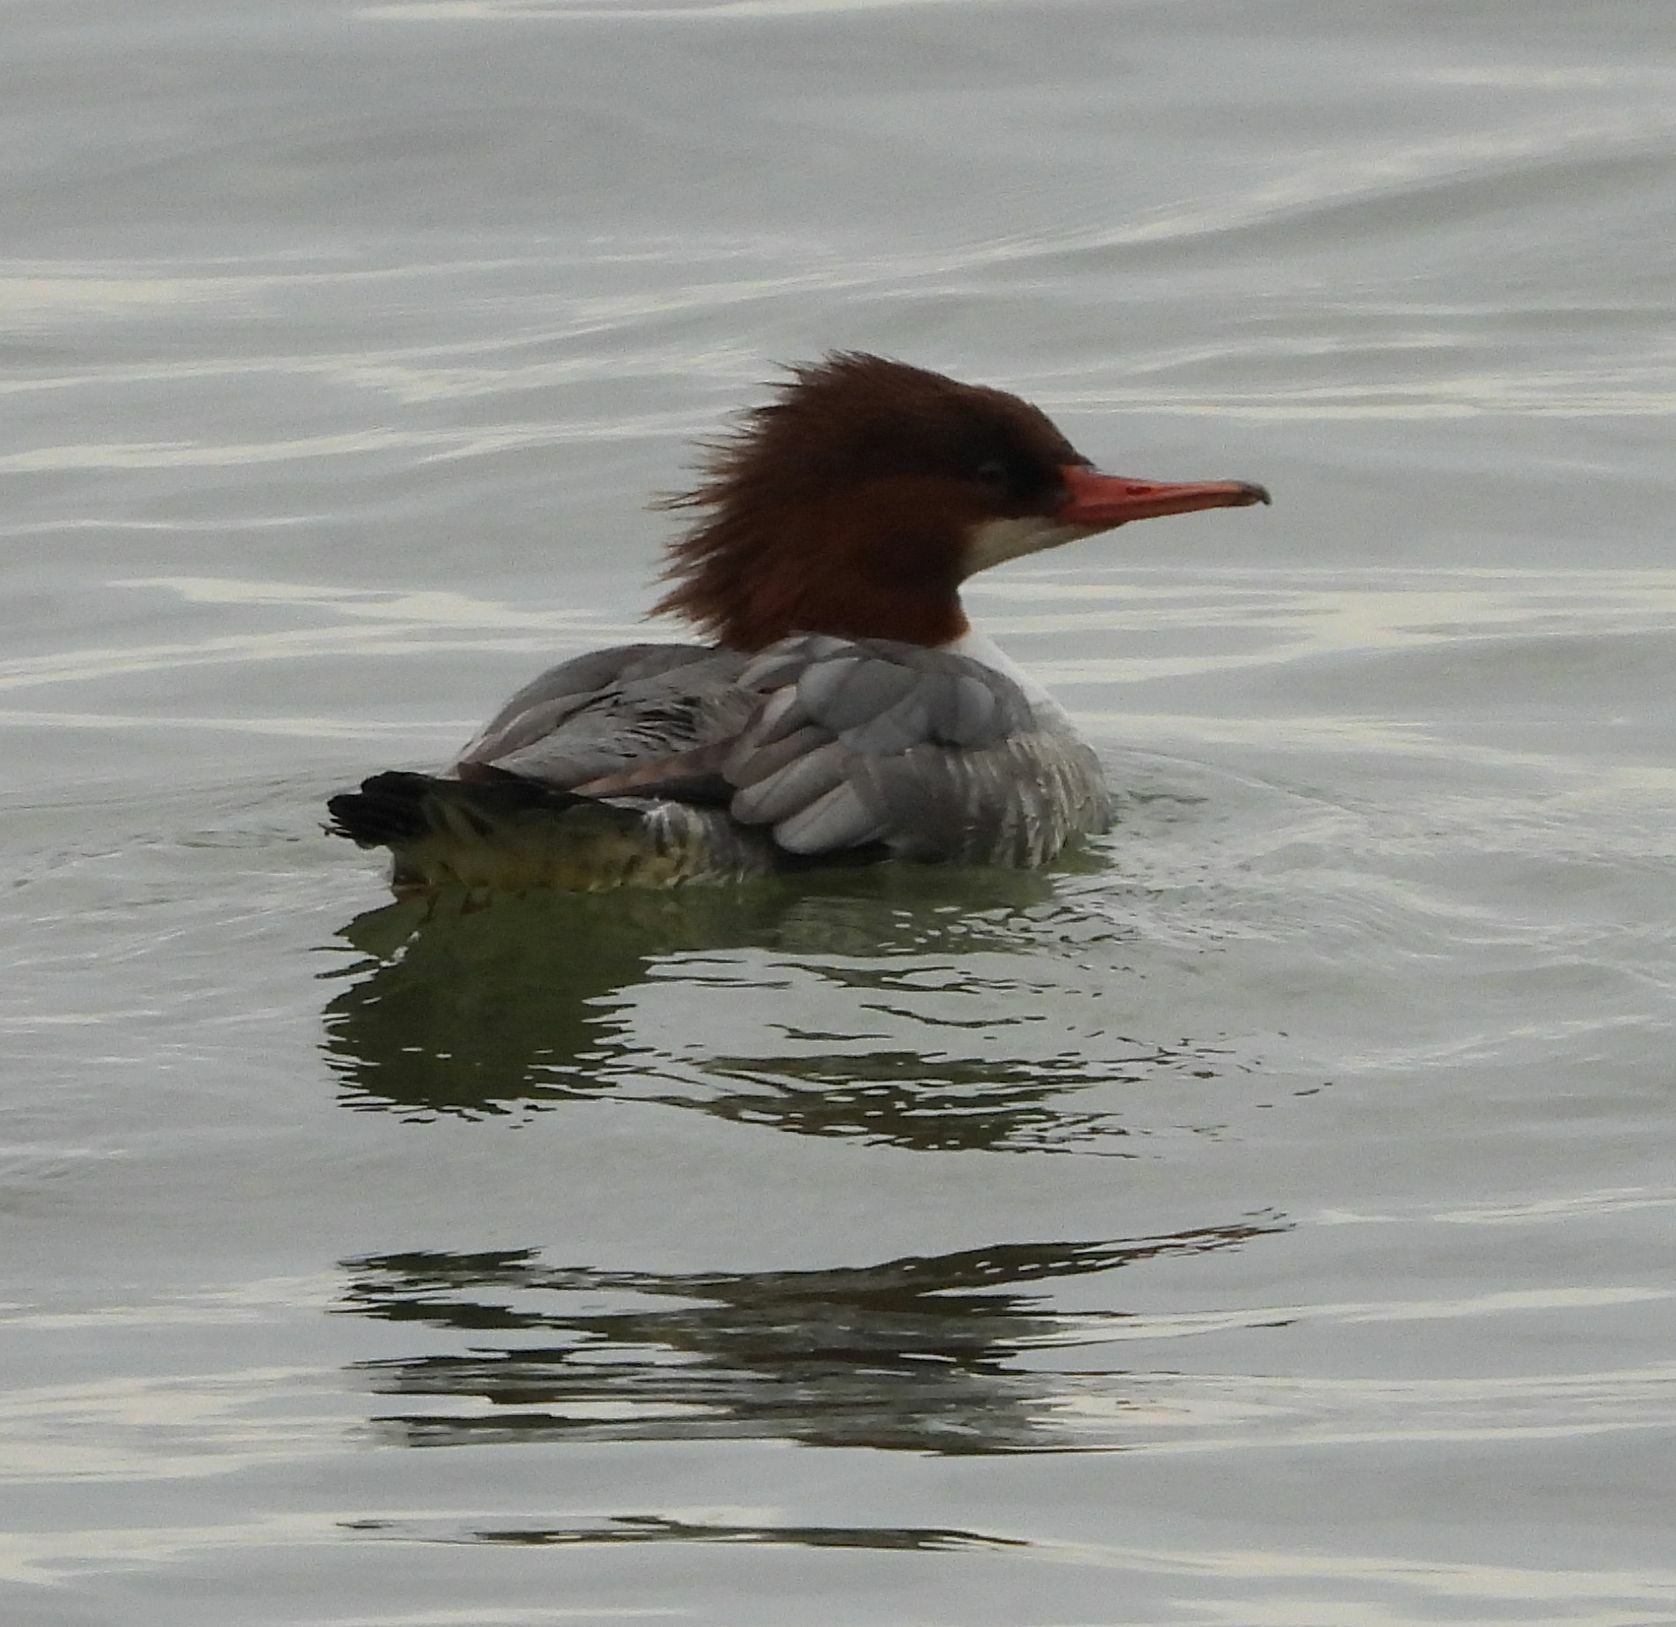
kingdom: Animalia
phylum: Chordata
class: Aves
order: Anseriformes
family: Anatidae
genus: Mergus
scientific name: Mergus merganser
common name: Common merganser
